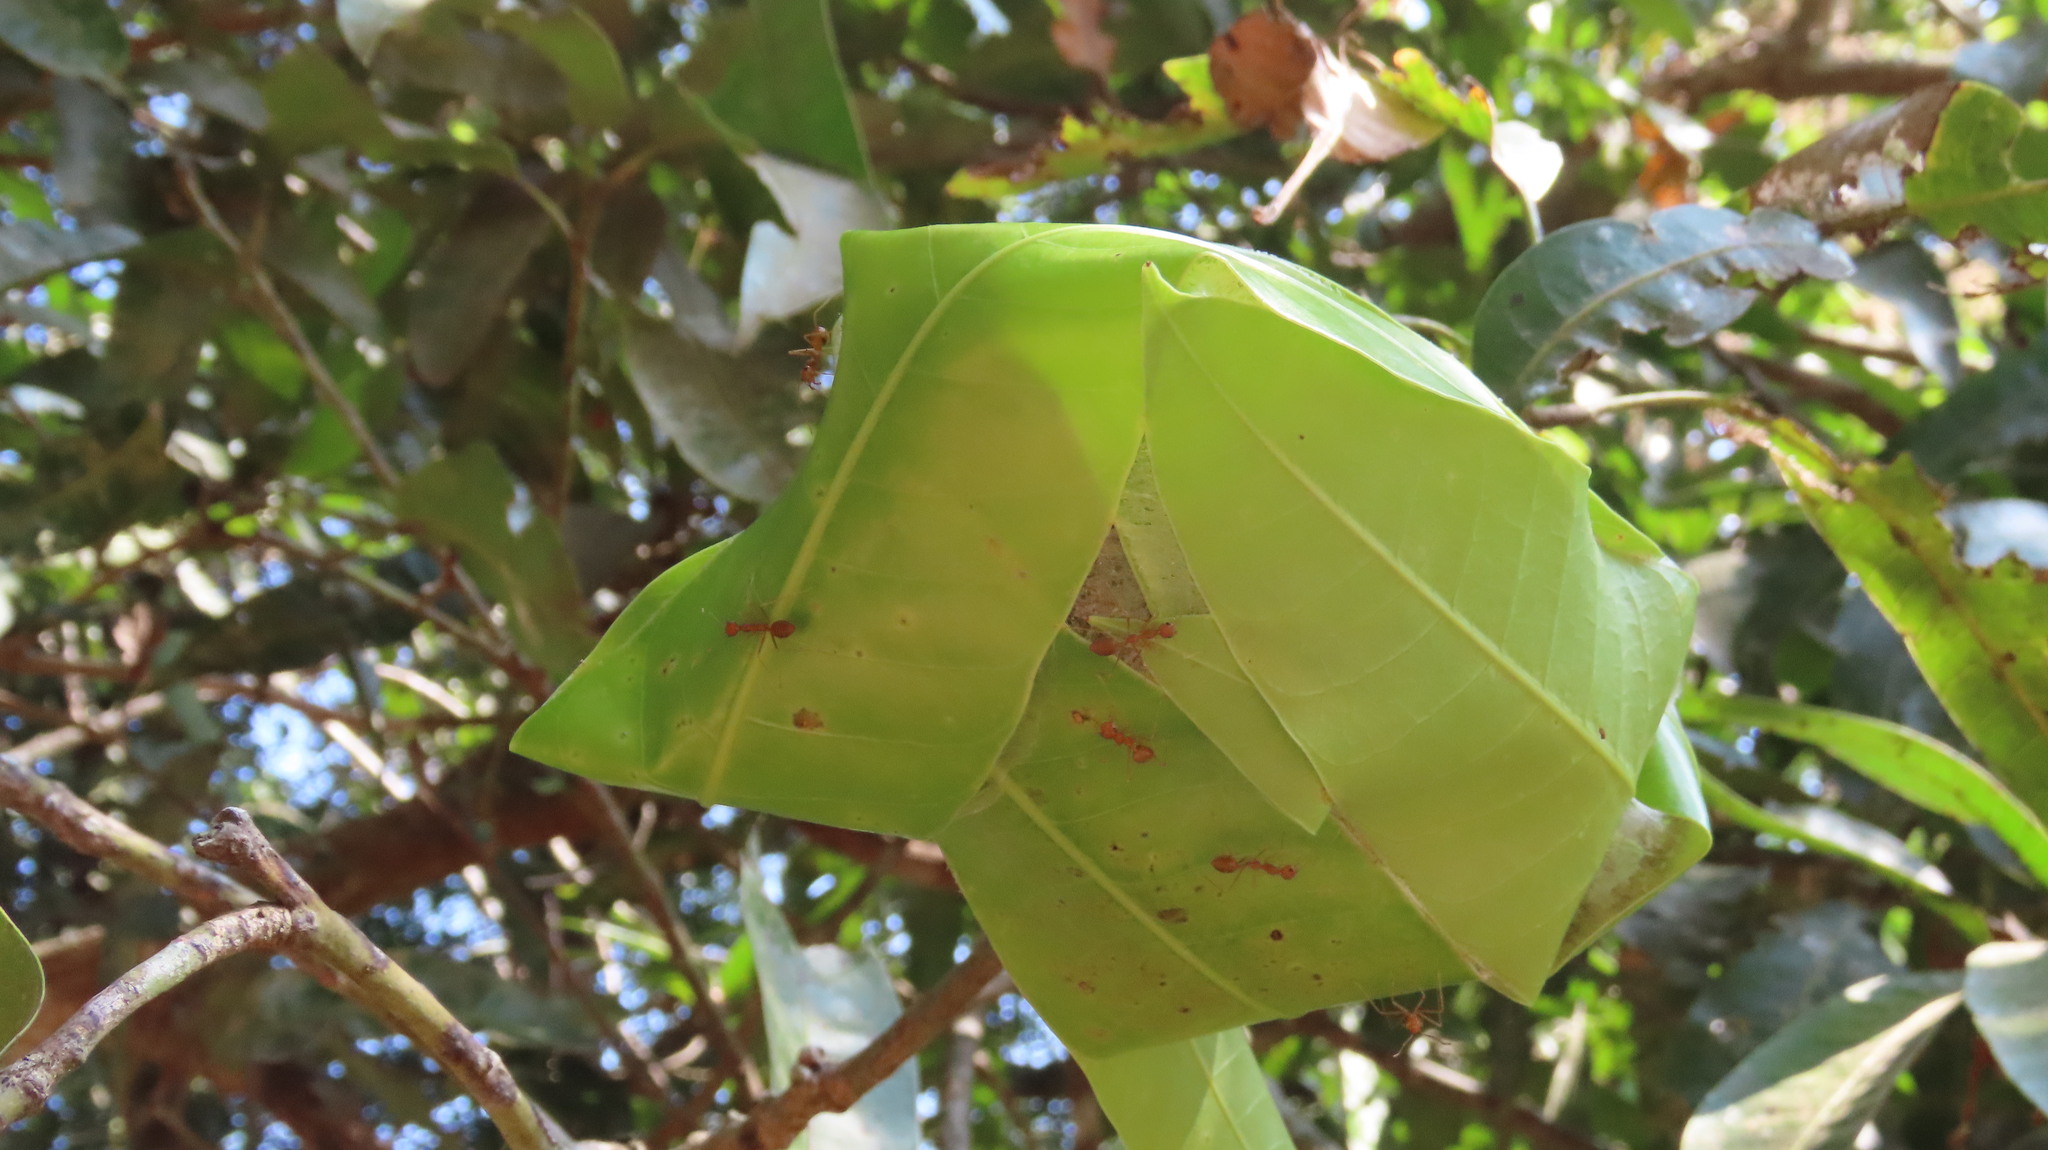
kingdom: Animalia
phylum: Arthropoda
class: Insecta
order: Hymenoptera
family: Formicidae
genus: Oecophylla
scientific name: Oecophylla smaragdina
